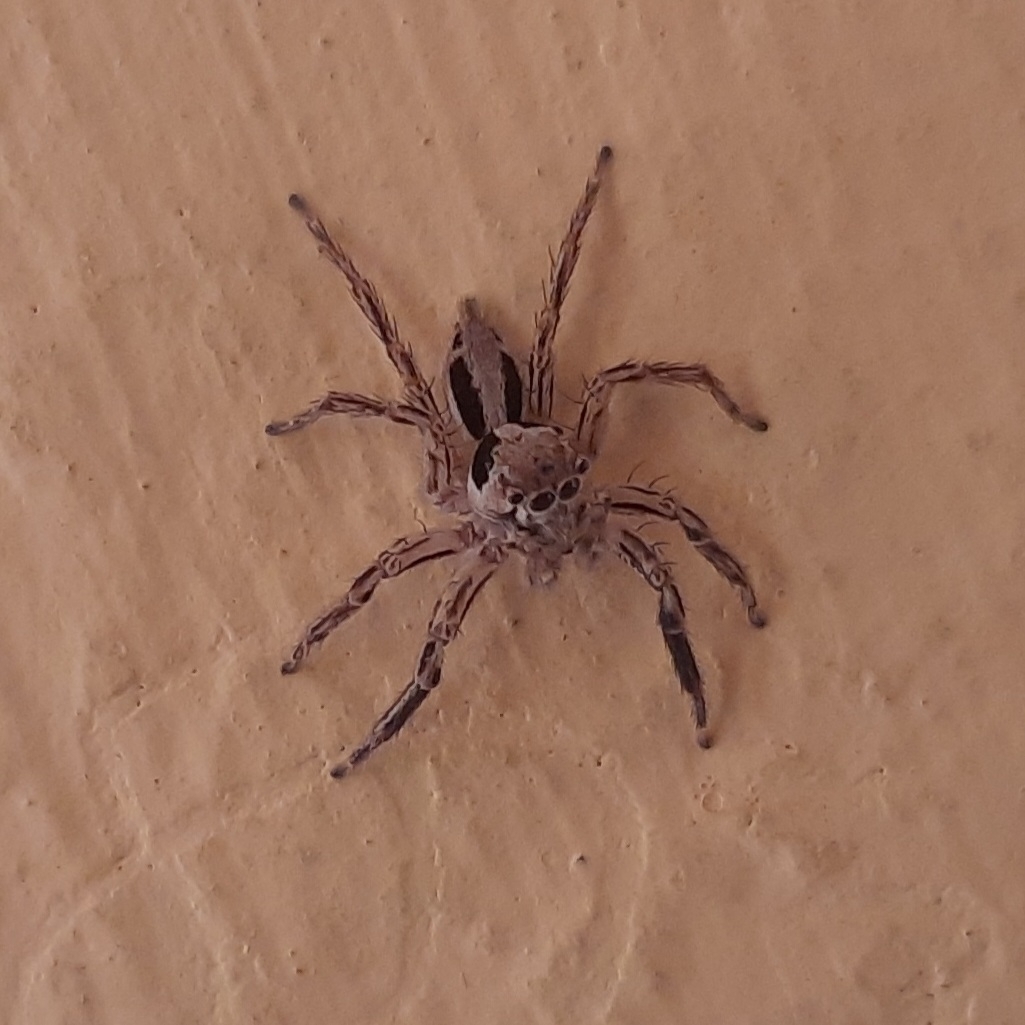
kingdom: Animalia
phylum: Arthropoda
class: Arachnida
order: Araneae
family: Salticidae
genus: Plexippus
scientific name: Plexippus petersi
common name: Jumping spider
